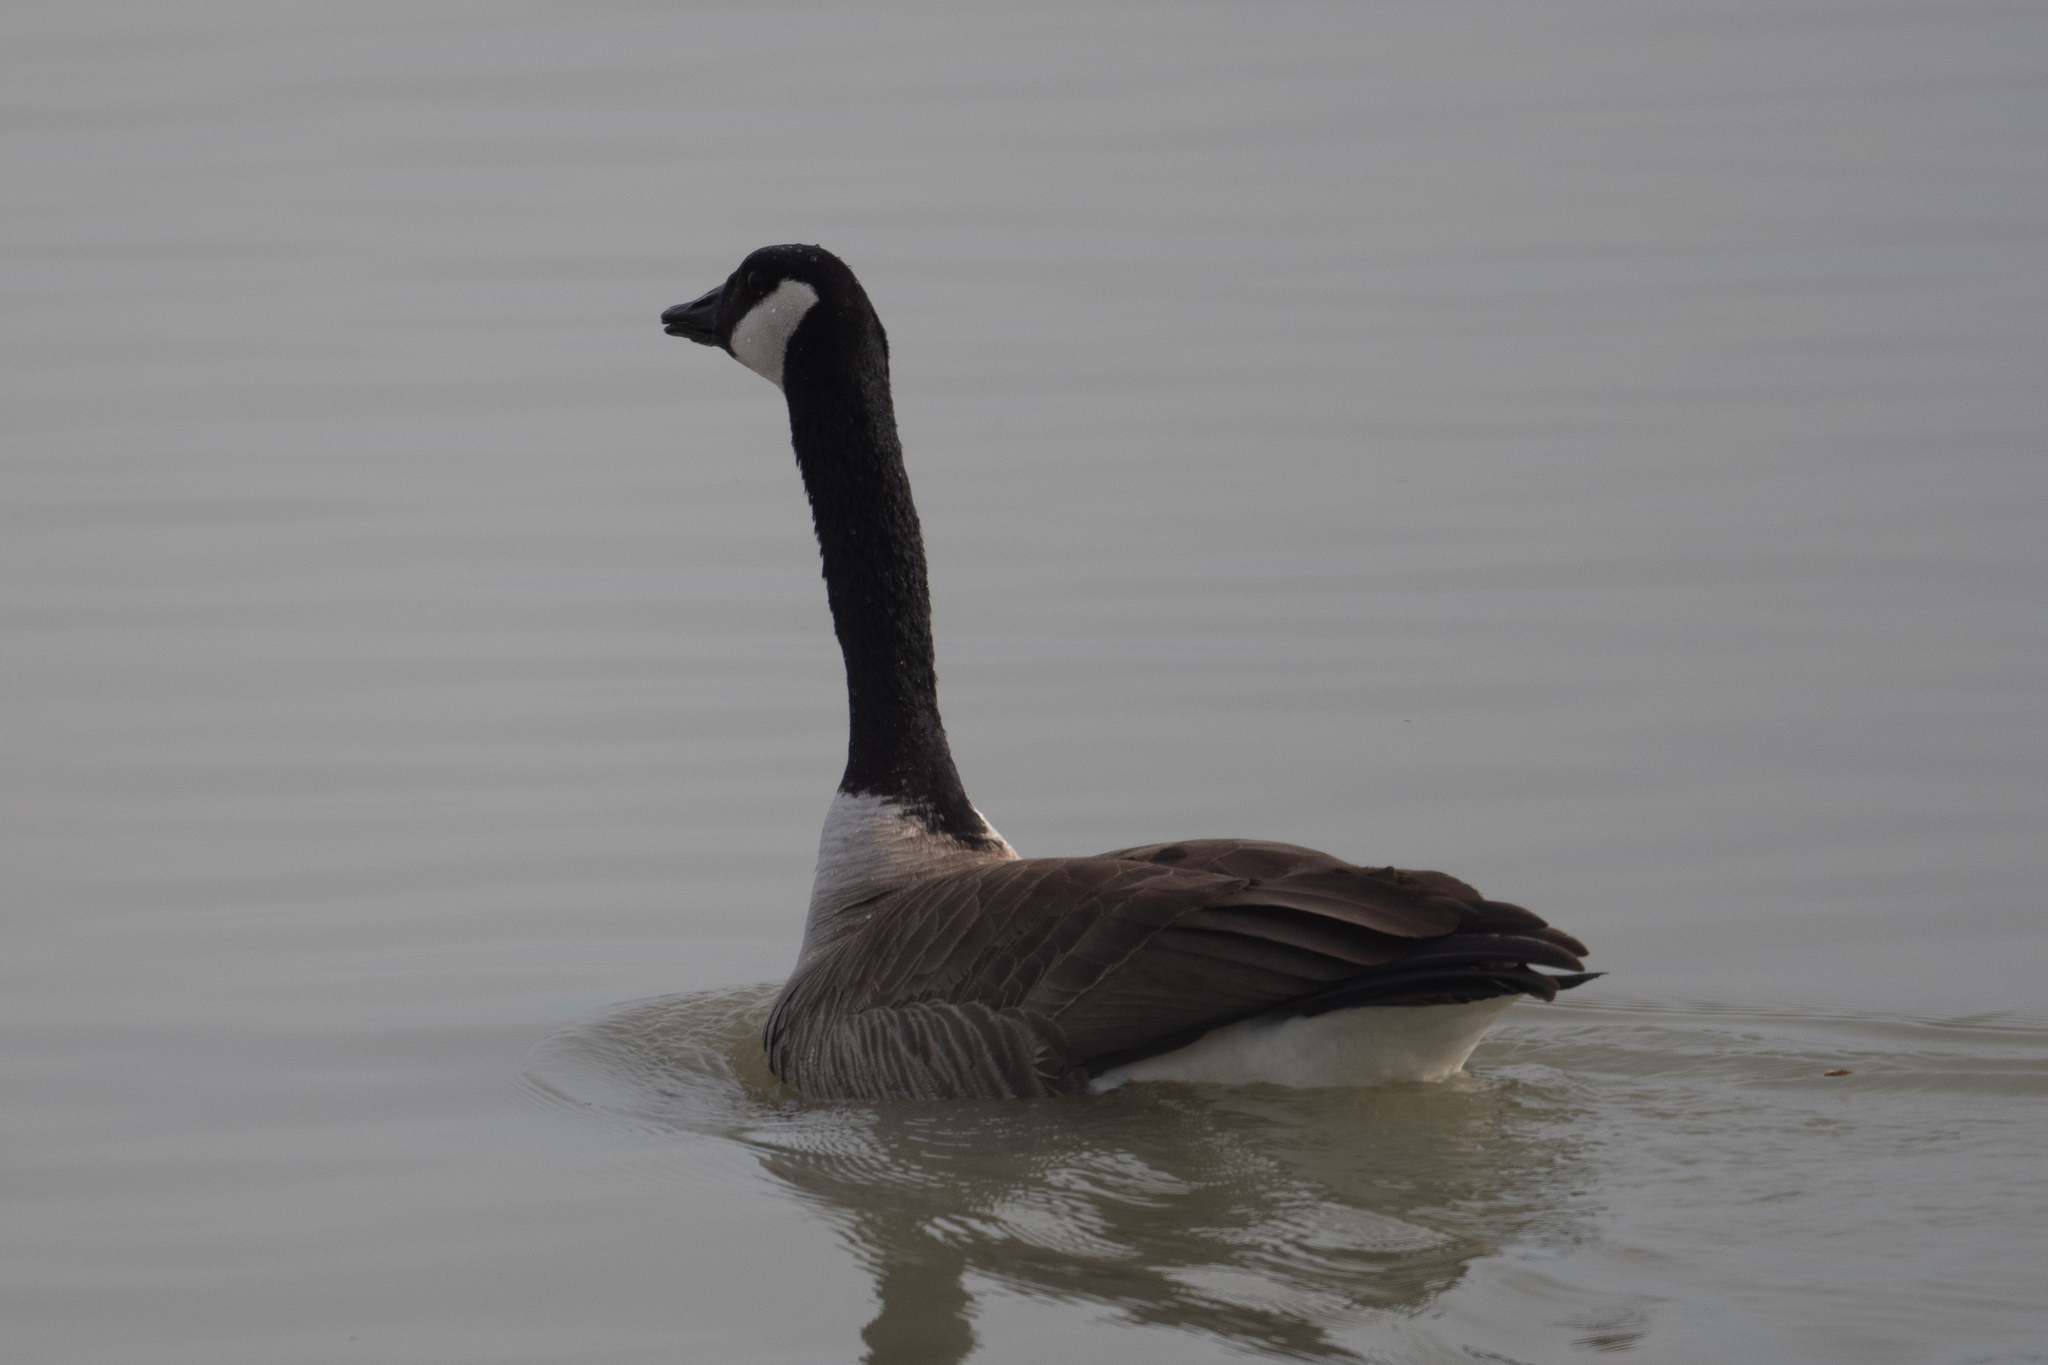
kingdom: Animalia
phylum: Chordata
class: Aves
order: Anseriformes
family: Anatidae
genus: Branta
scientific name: Branta canadensis
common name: Canada goose
